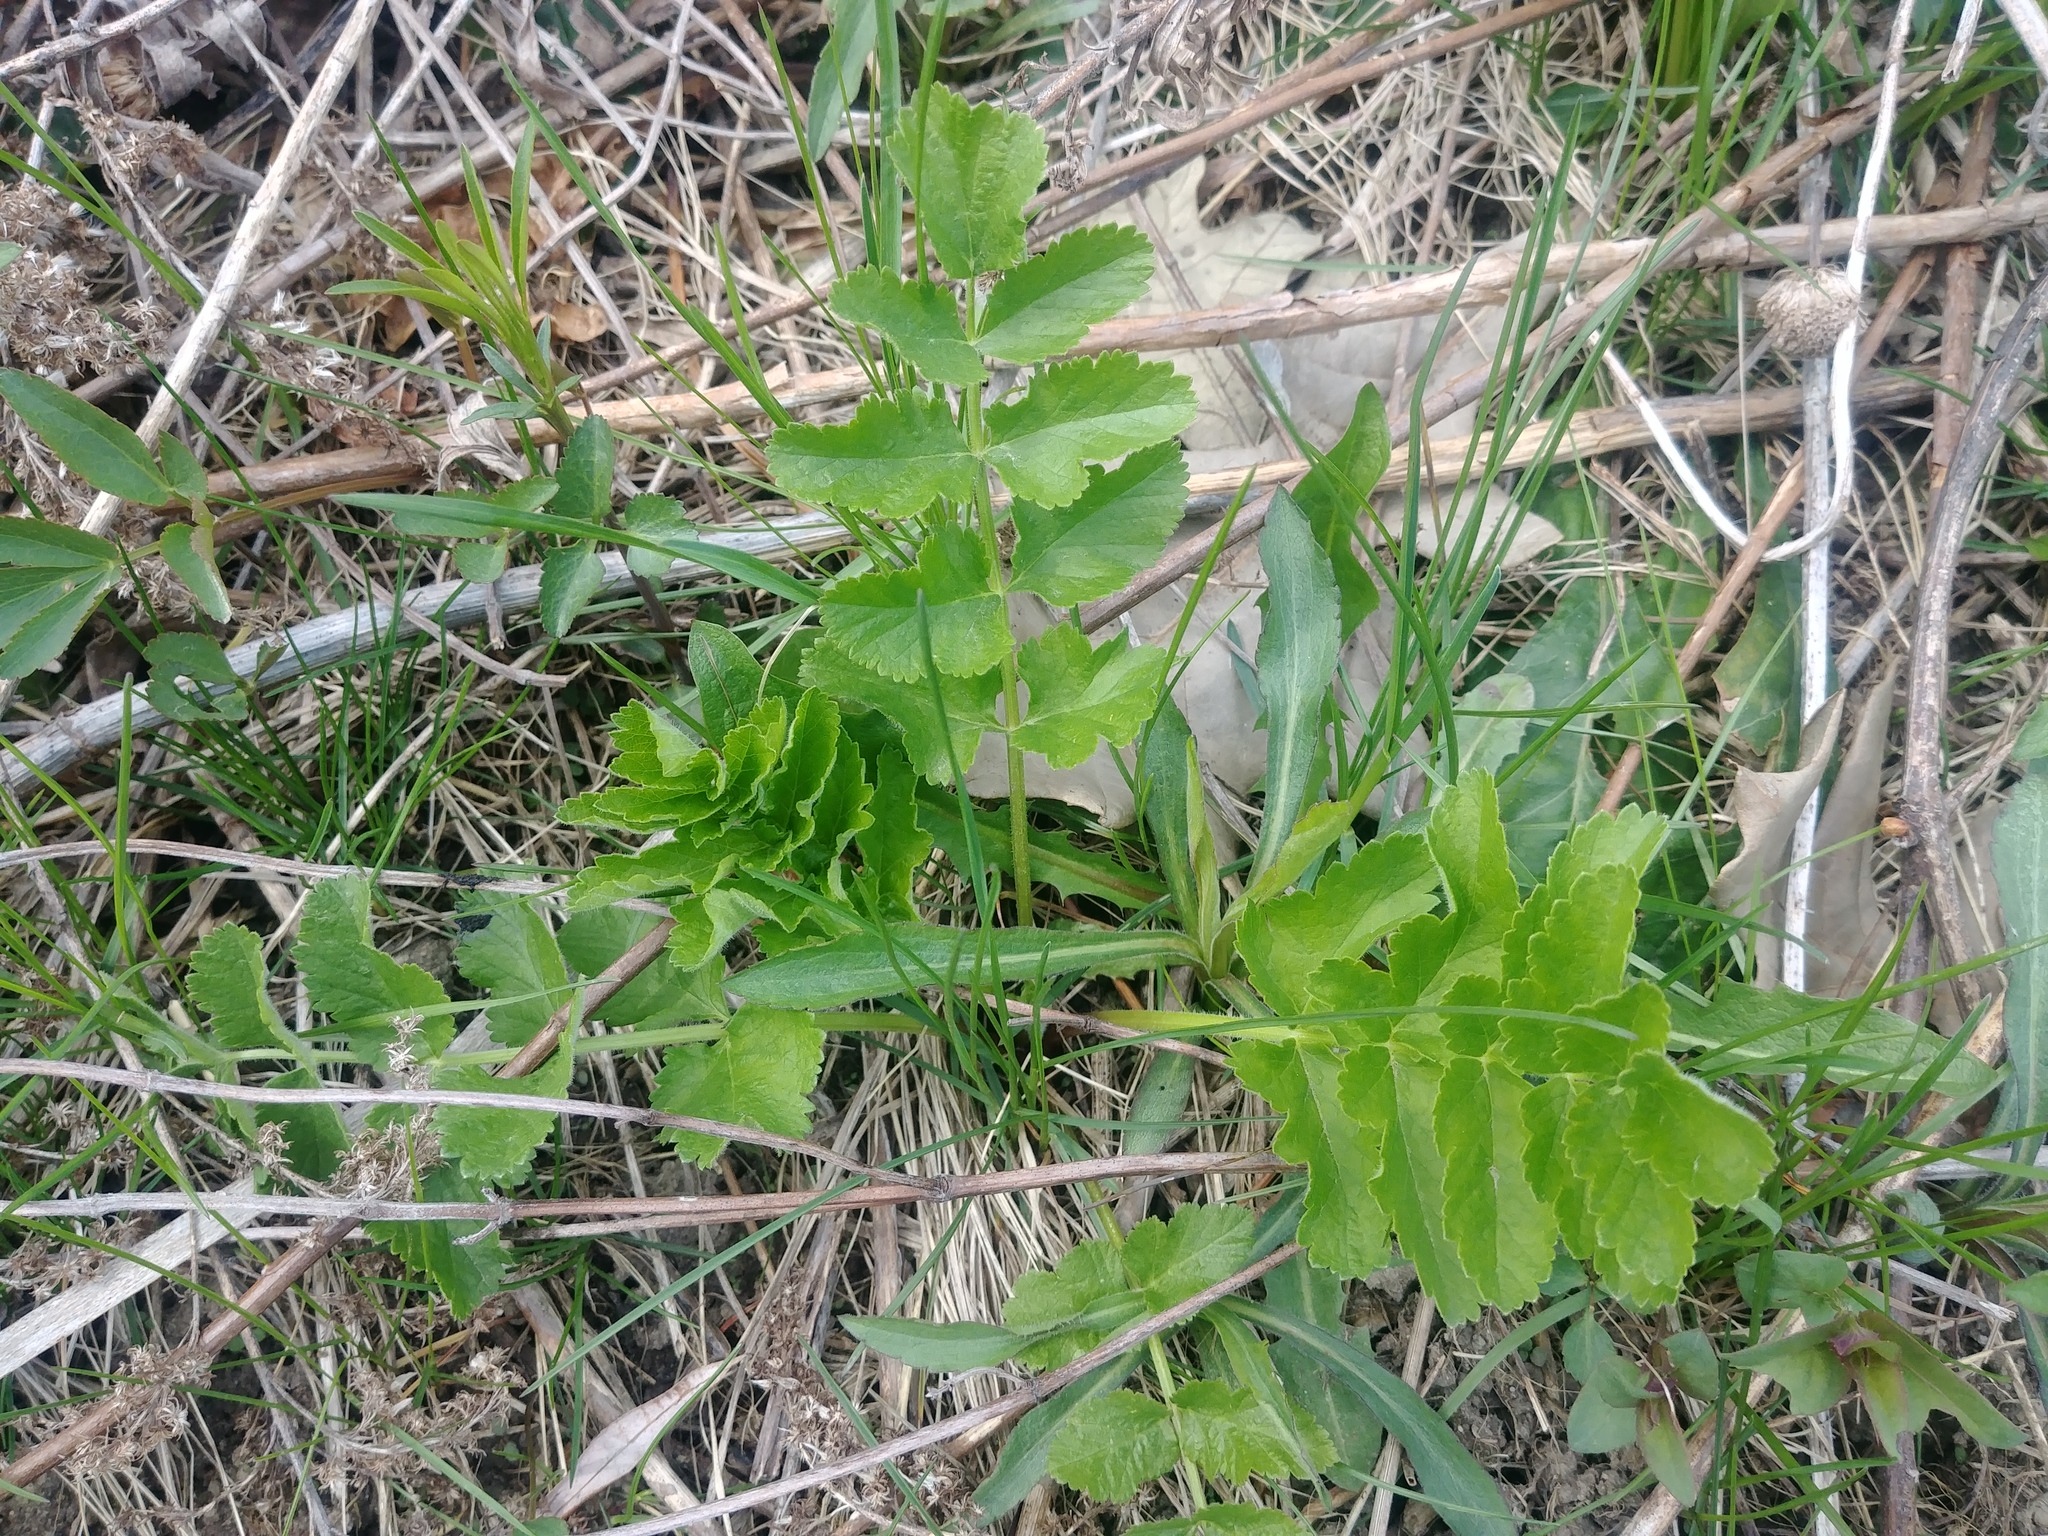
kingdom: Plantae
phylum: Tracheophyta
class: Magnoliopsida
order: Apiales
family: Apiaceae
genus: Pastinaca
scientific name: Pastinaca sativa
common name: Wild parsnip
